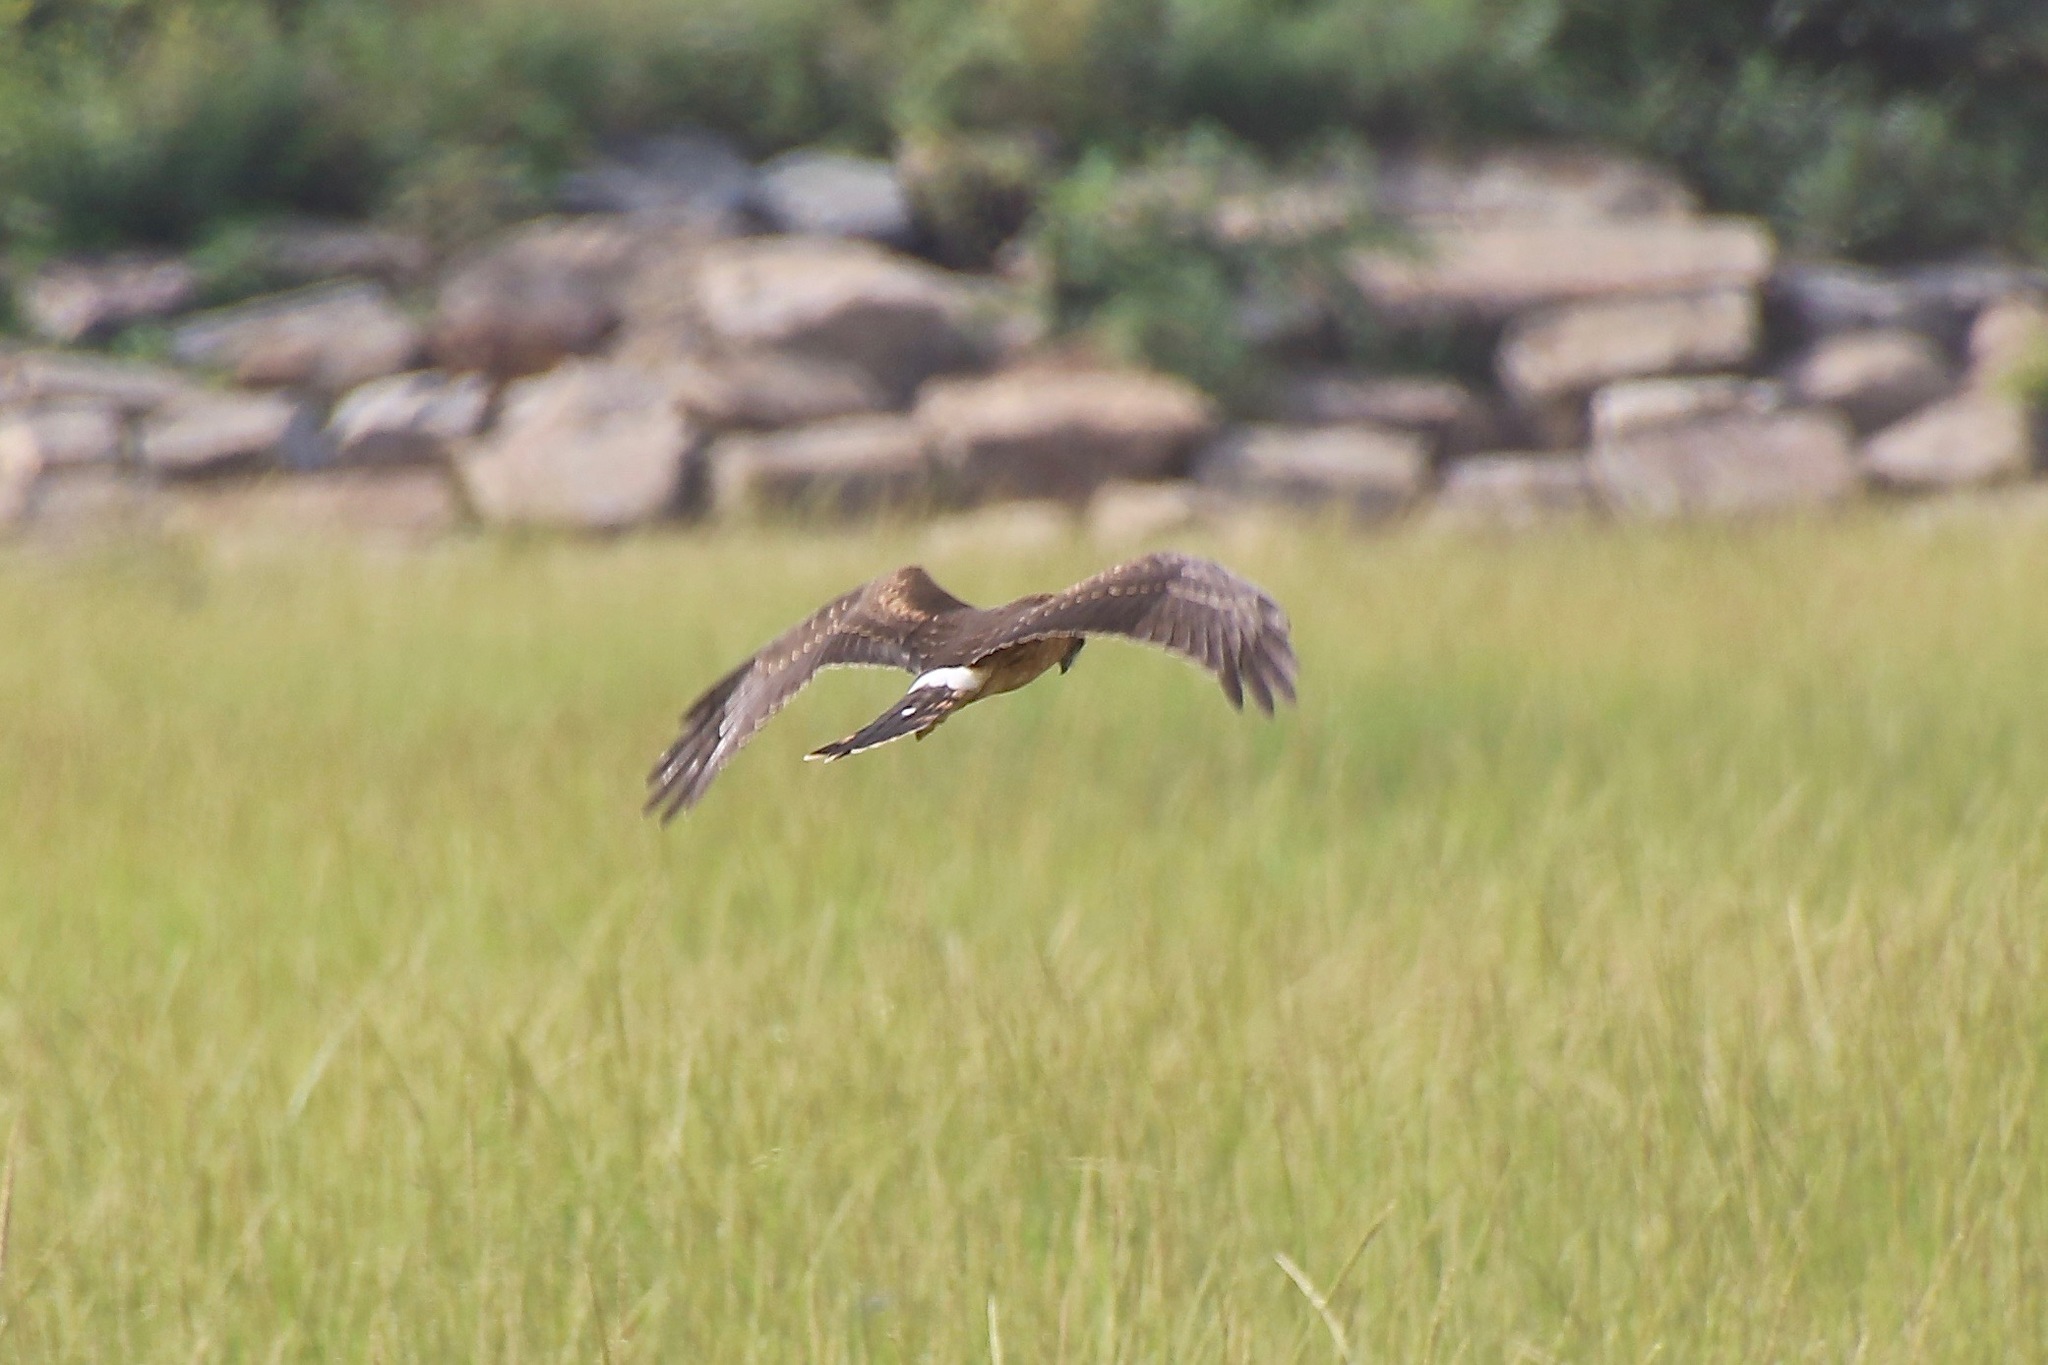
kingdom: Animalia
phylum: Chordata
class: Aves
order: Accipitriformes
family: Accipitridae
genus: Circus
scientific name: Circus cyaneus
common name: Hen harrier
